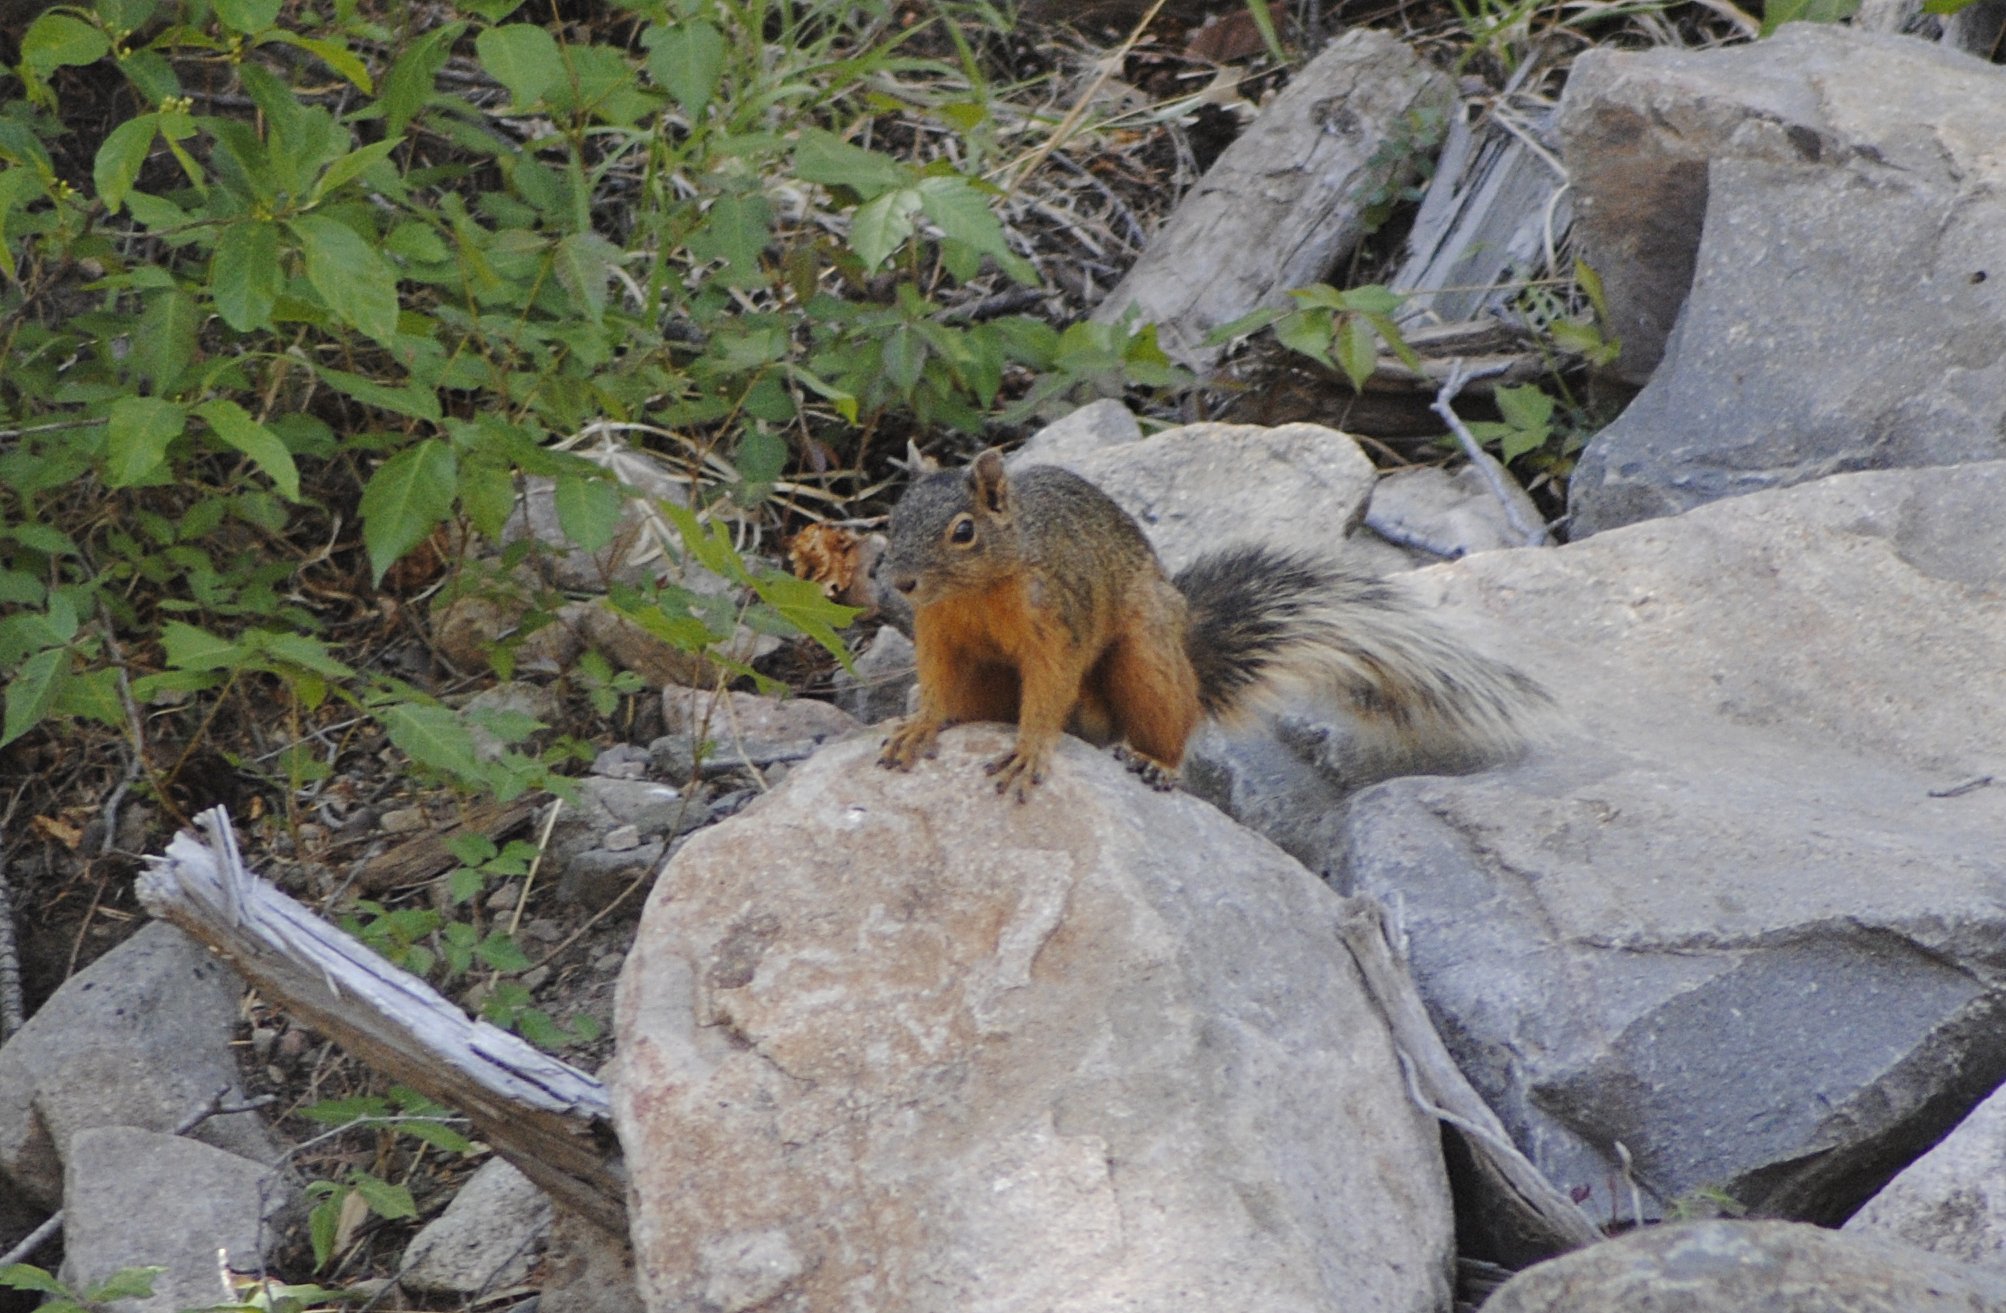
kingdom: Animalia
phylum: Chordata
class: Mammalia
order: Rodentia
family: Sciuridae
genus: Sciurus
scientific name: Sciurus nayaritensis
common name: Mexican fox squirrel
